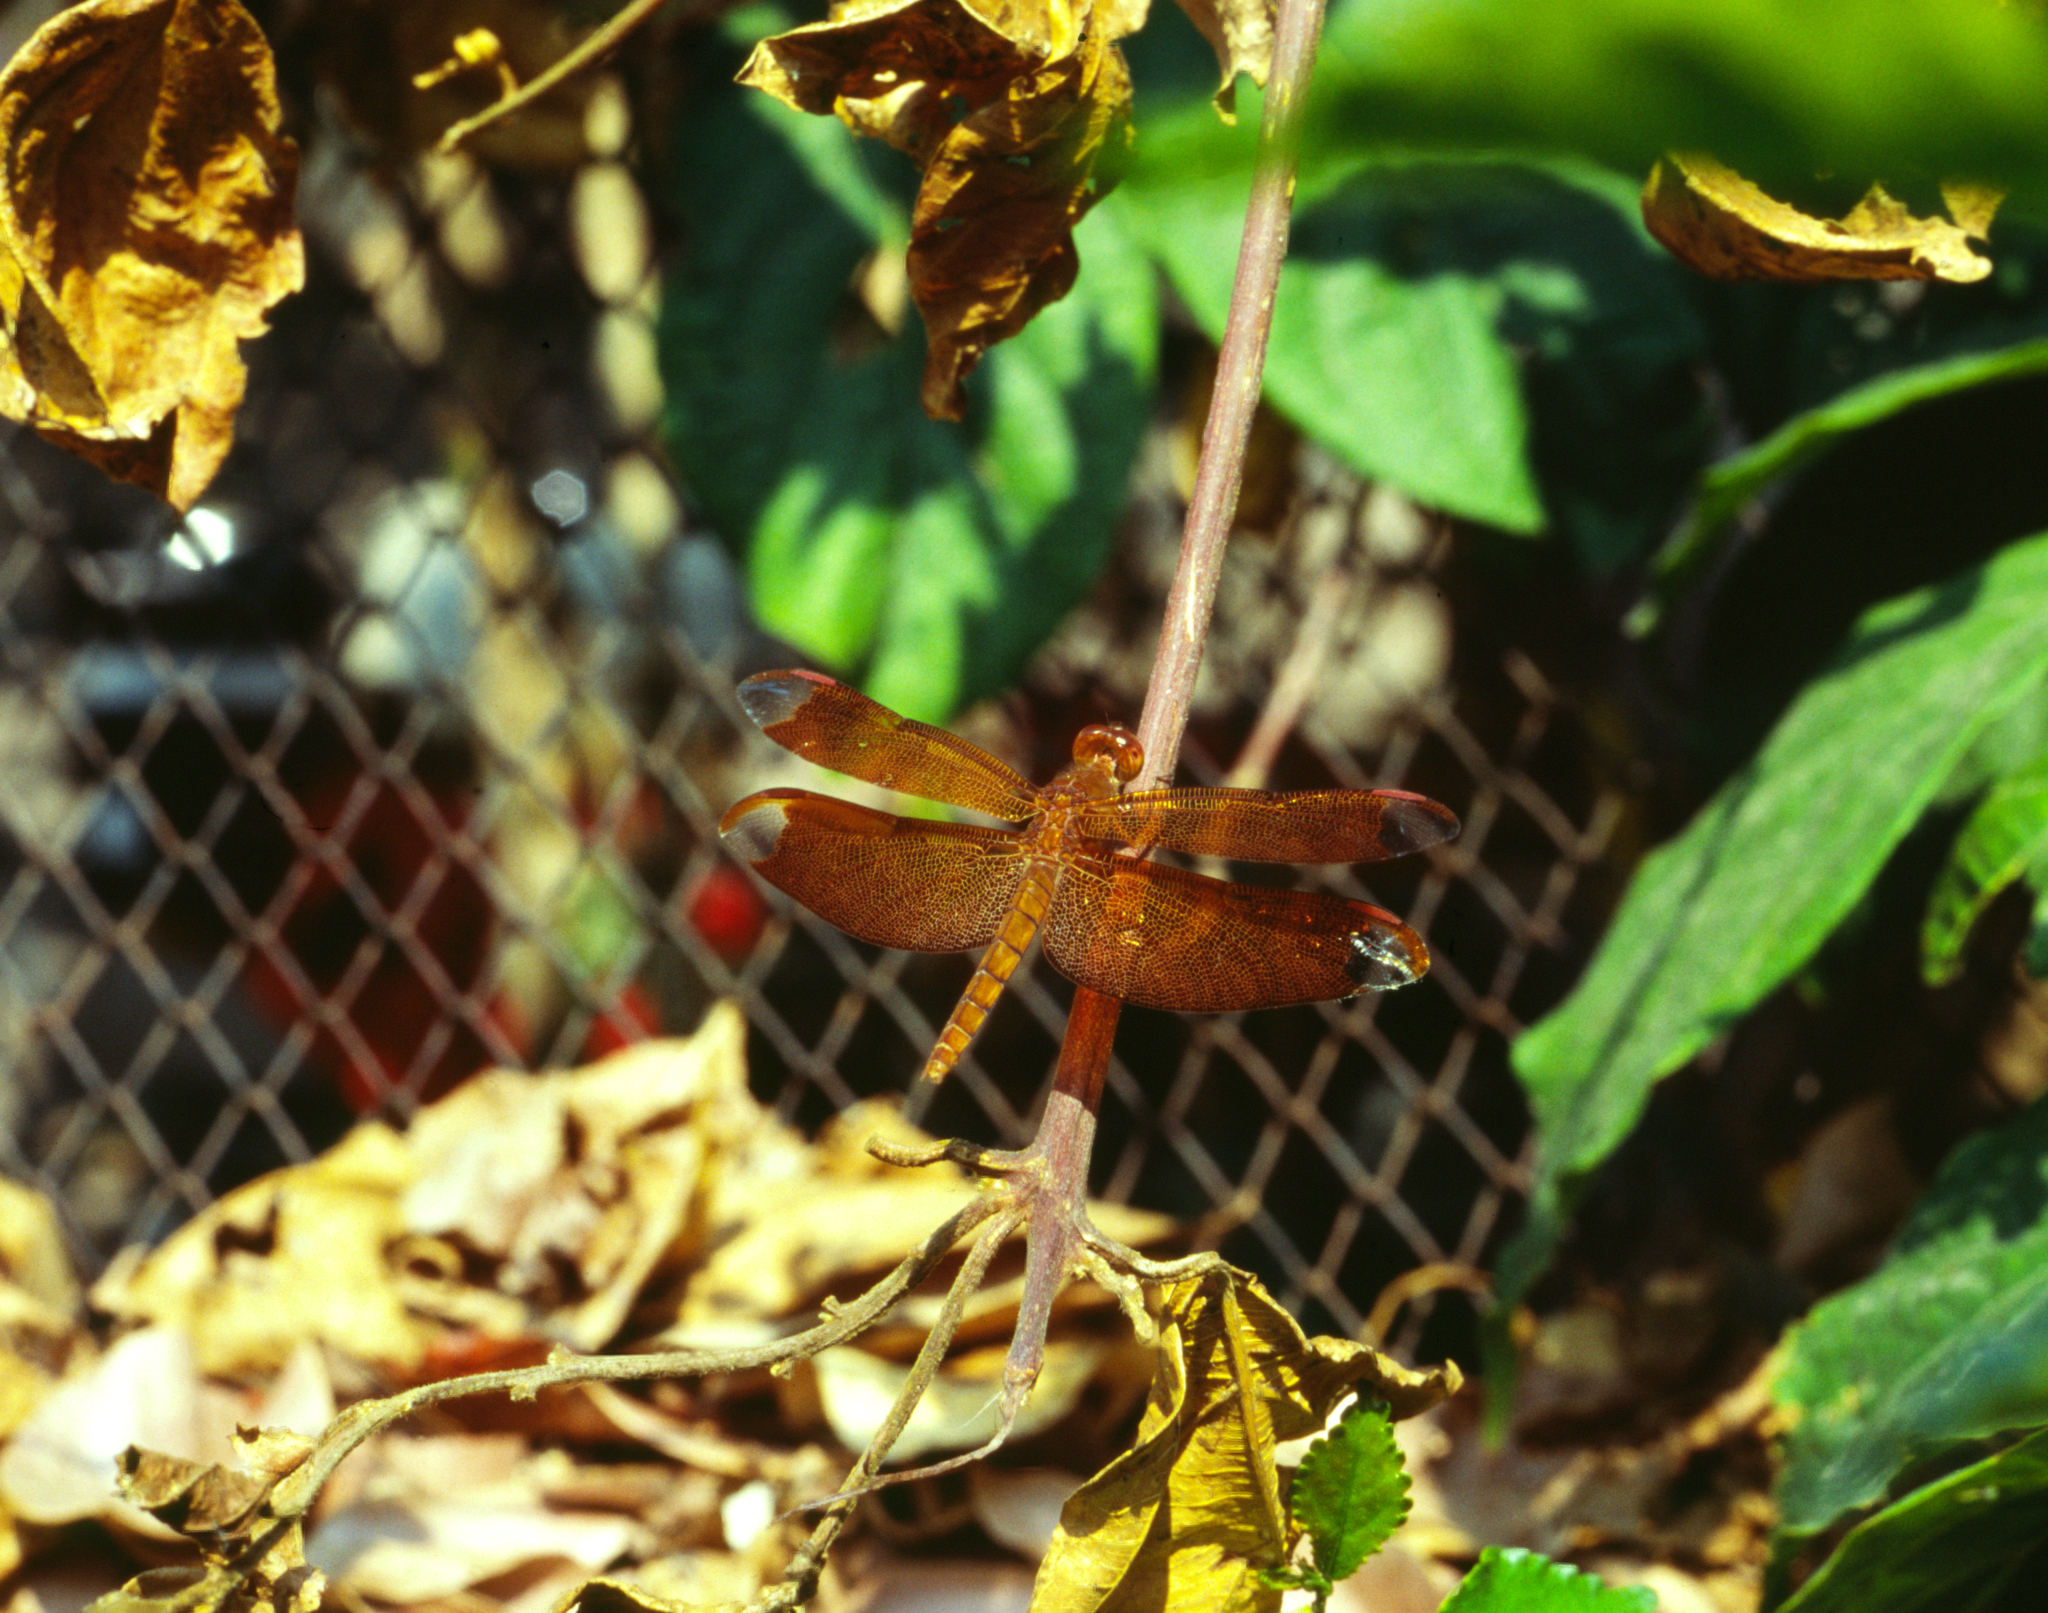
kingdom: Animalia
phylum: Arthropoda
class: Insecta
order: Odonata
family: Libellulidae
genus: Neurothemis
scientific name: Neurothemis fulvia
